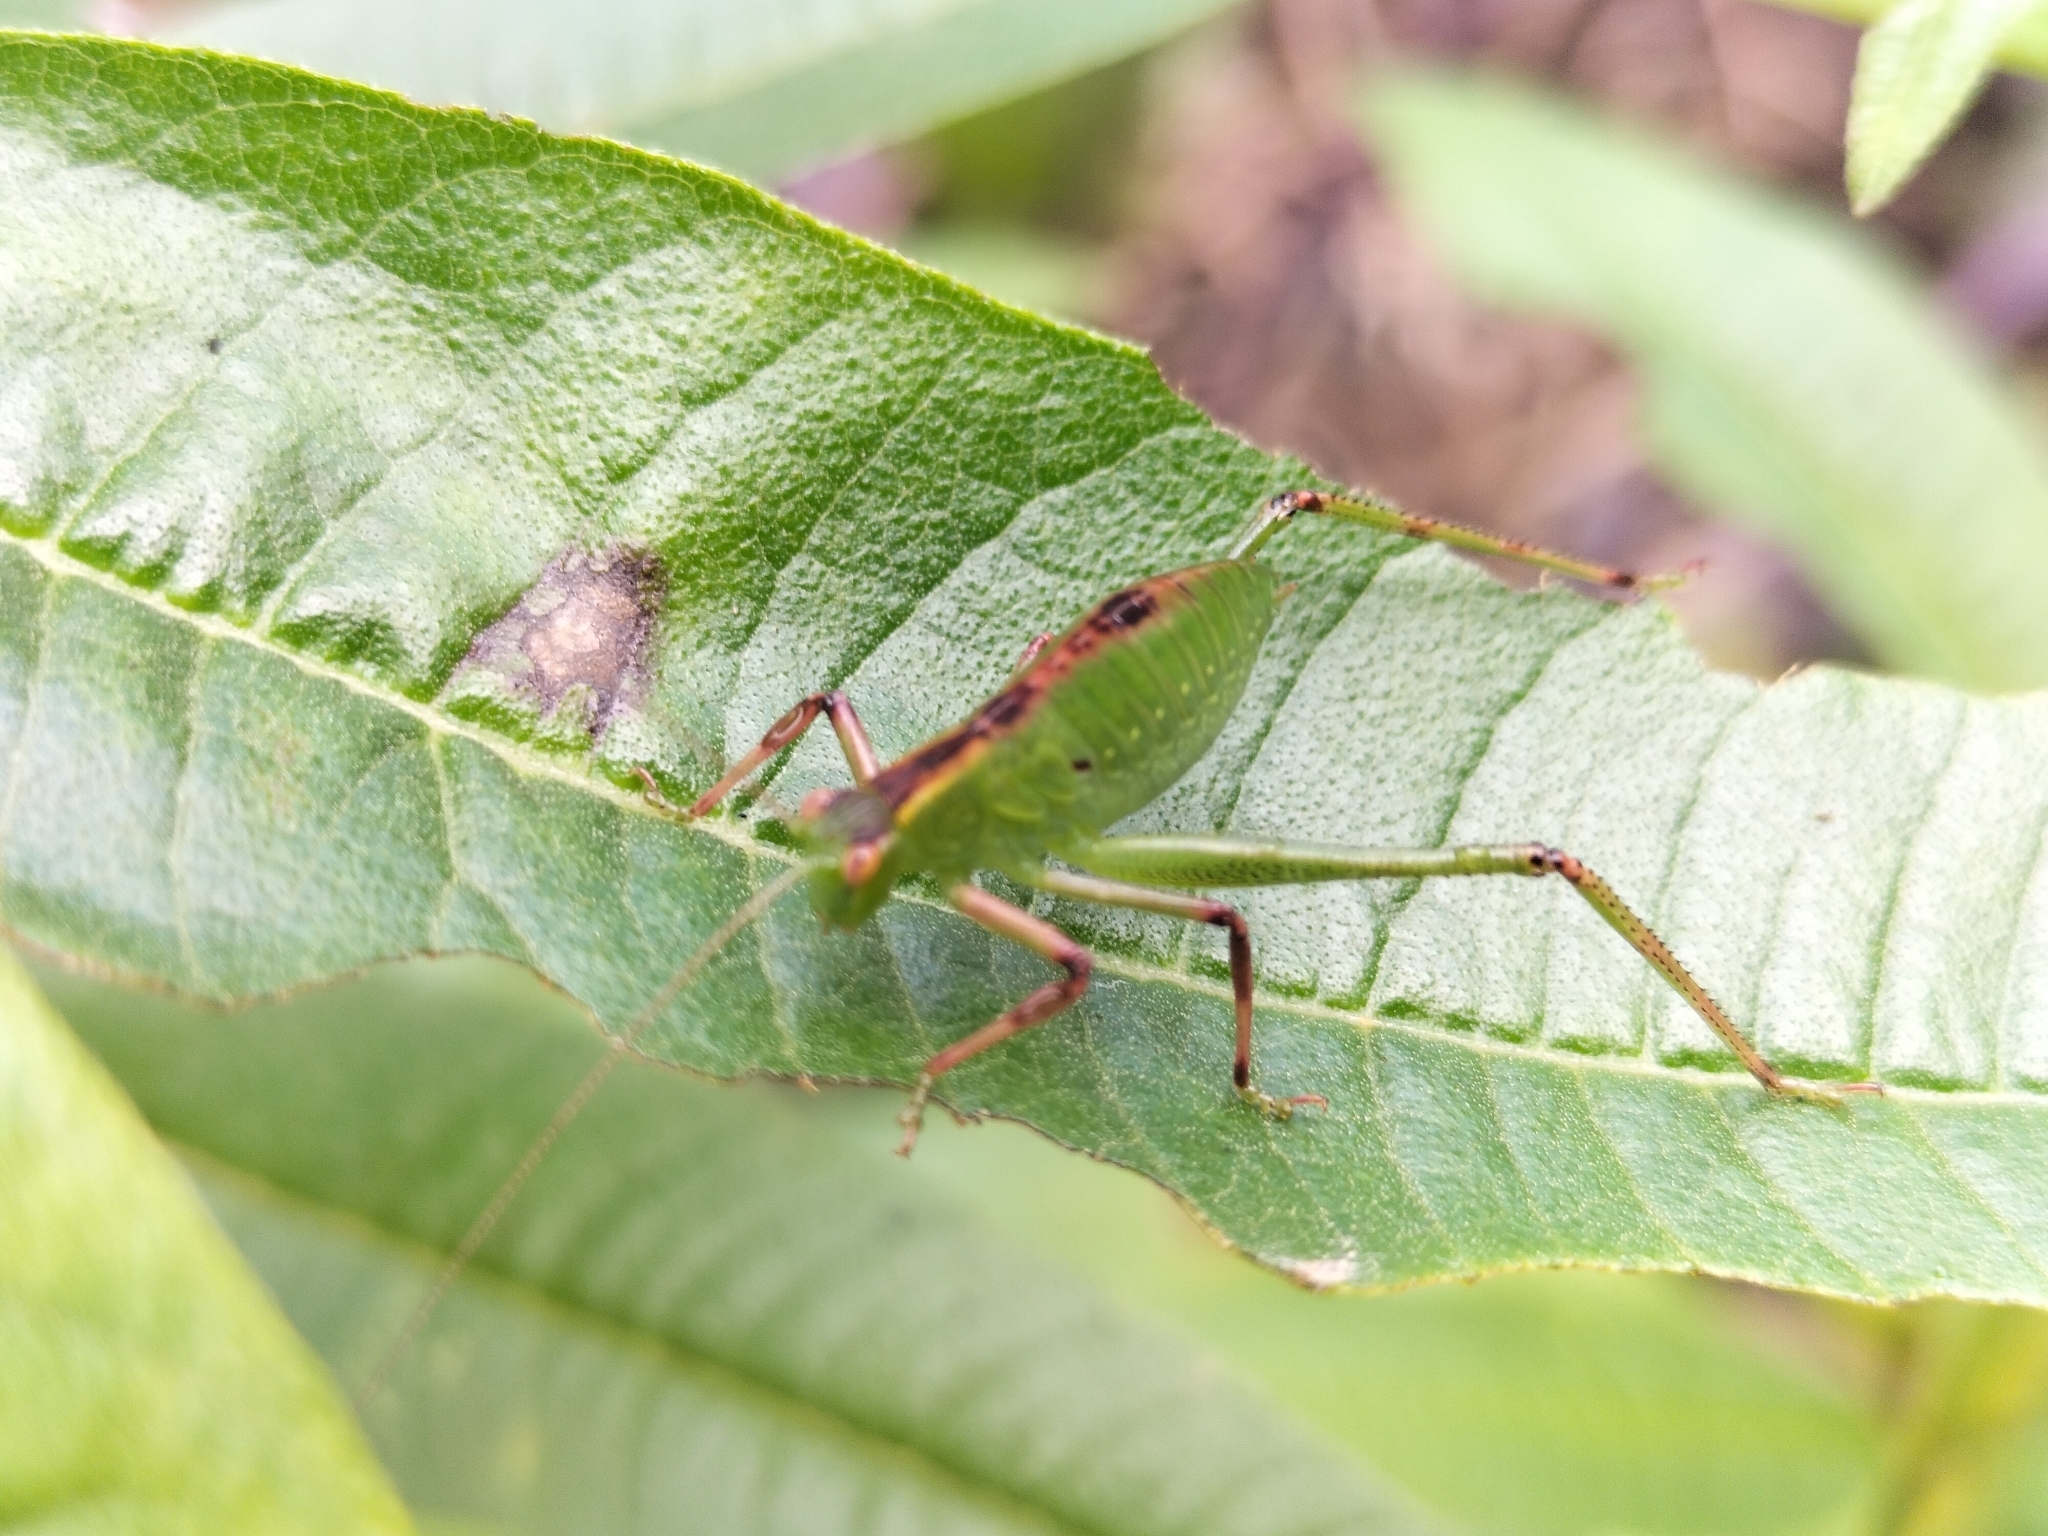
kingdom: Animalia
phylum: Arthropoda
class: Insecta
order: Orthoptera
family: Tettigoniidae
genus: Caedicia
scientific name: Caedicia simplex
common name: Common garden katydid
